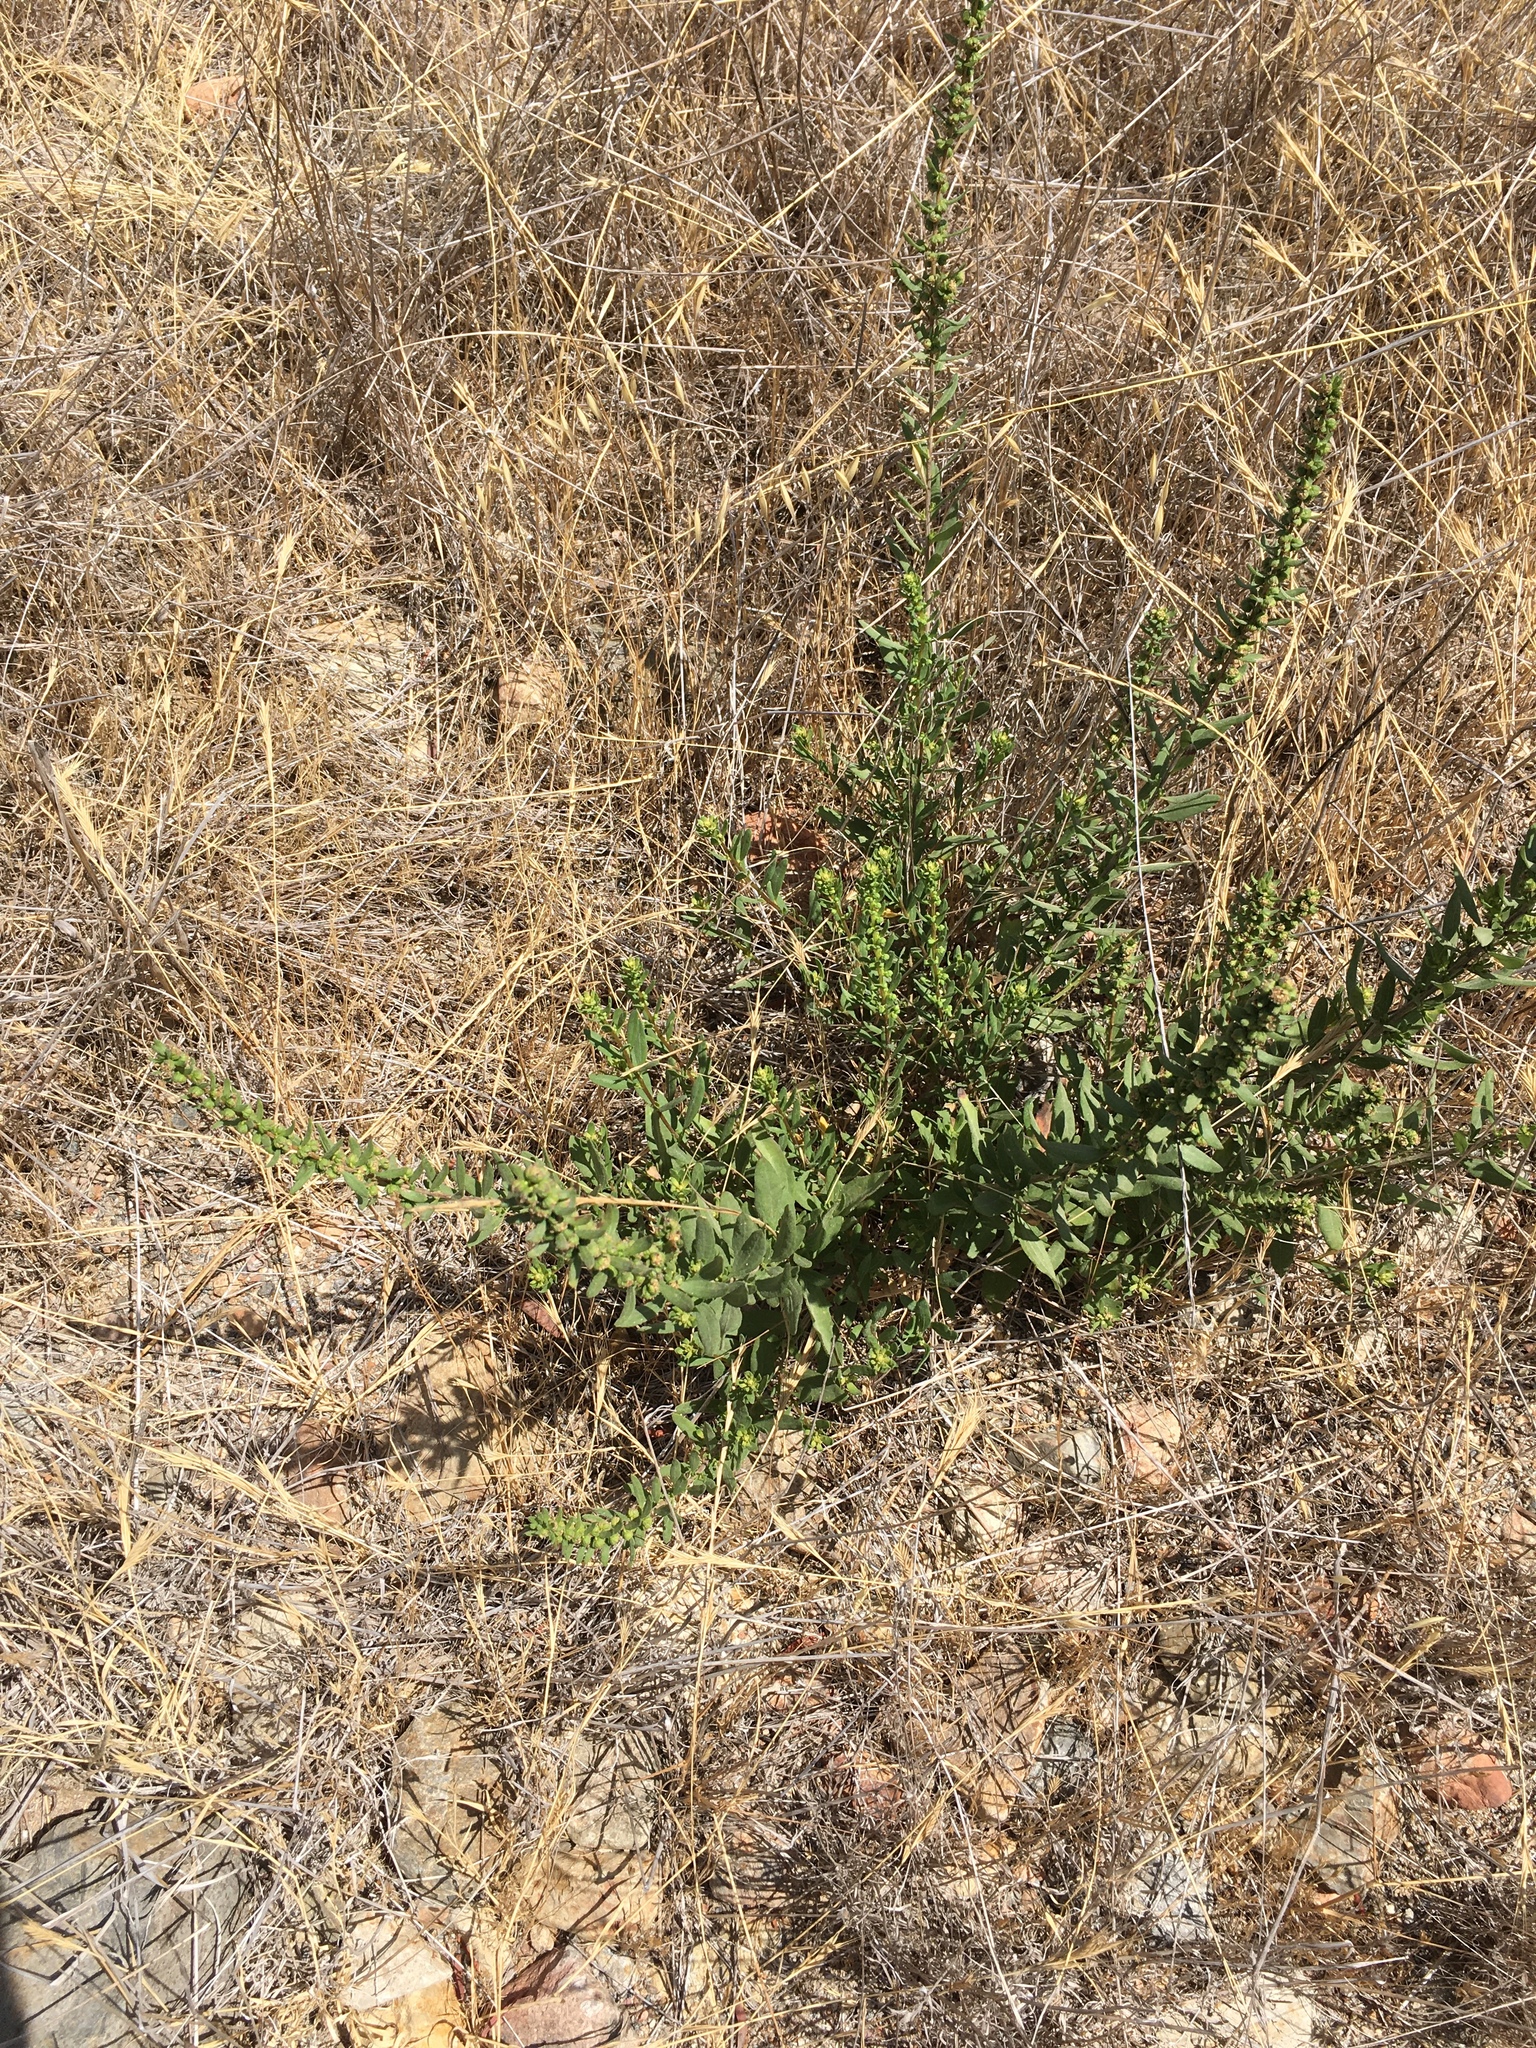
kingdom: Plantae
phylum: Tracheophyta
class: Magnoliopsida
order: Asterales
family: Asteraceae
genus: Iva
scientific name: Iva hayesiana
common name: San diego marsh-elder
